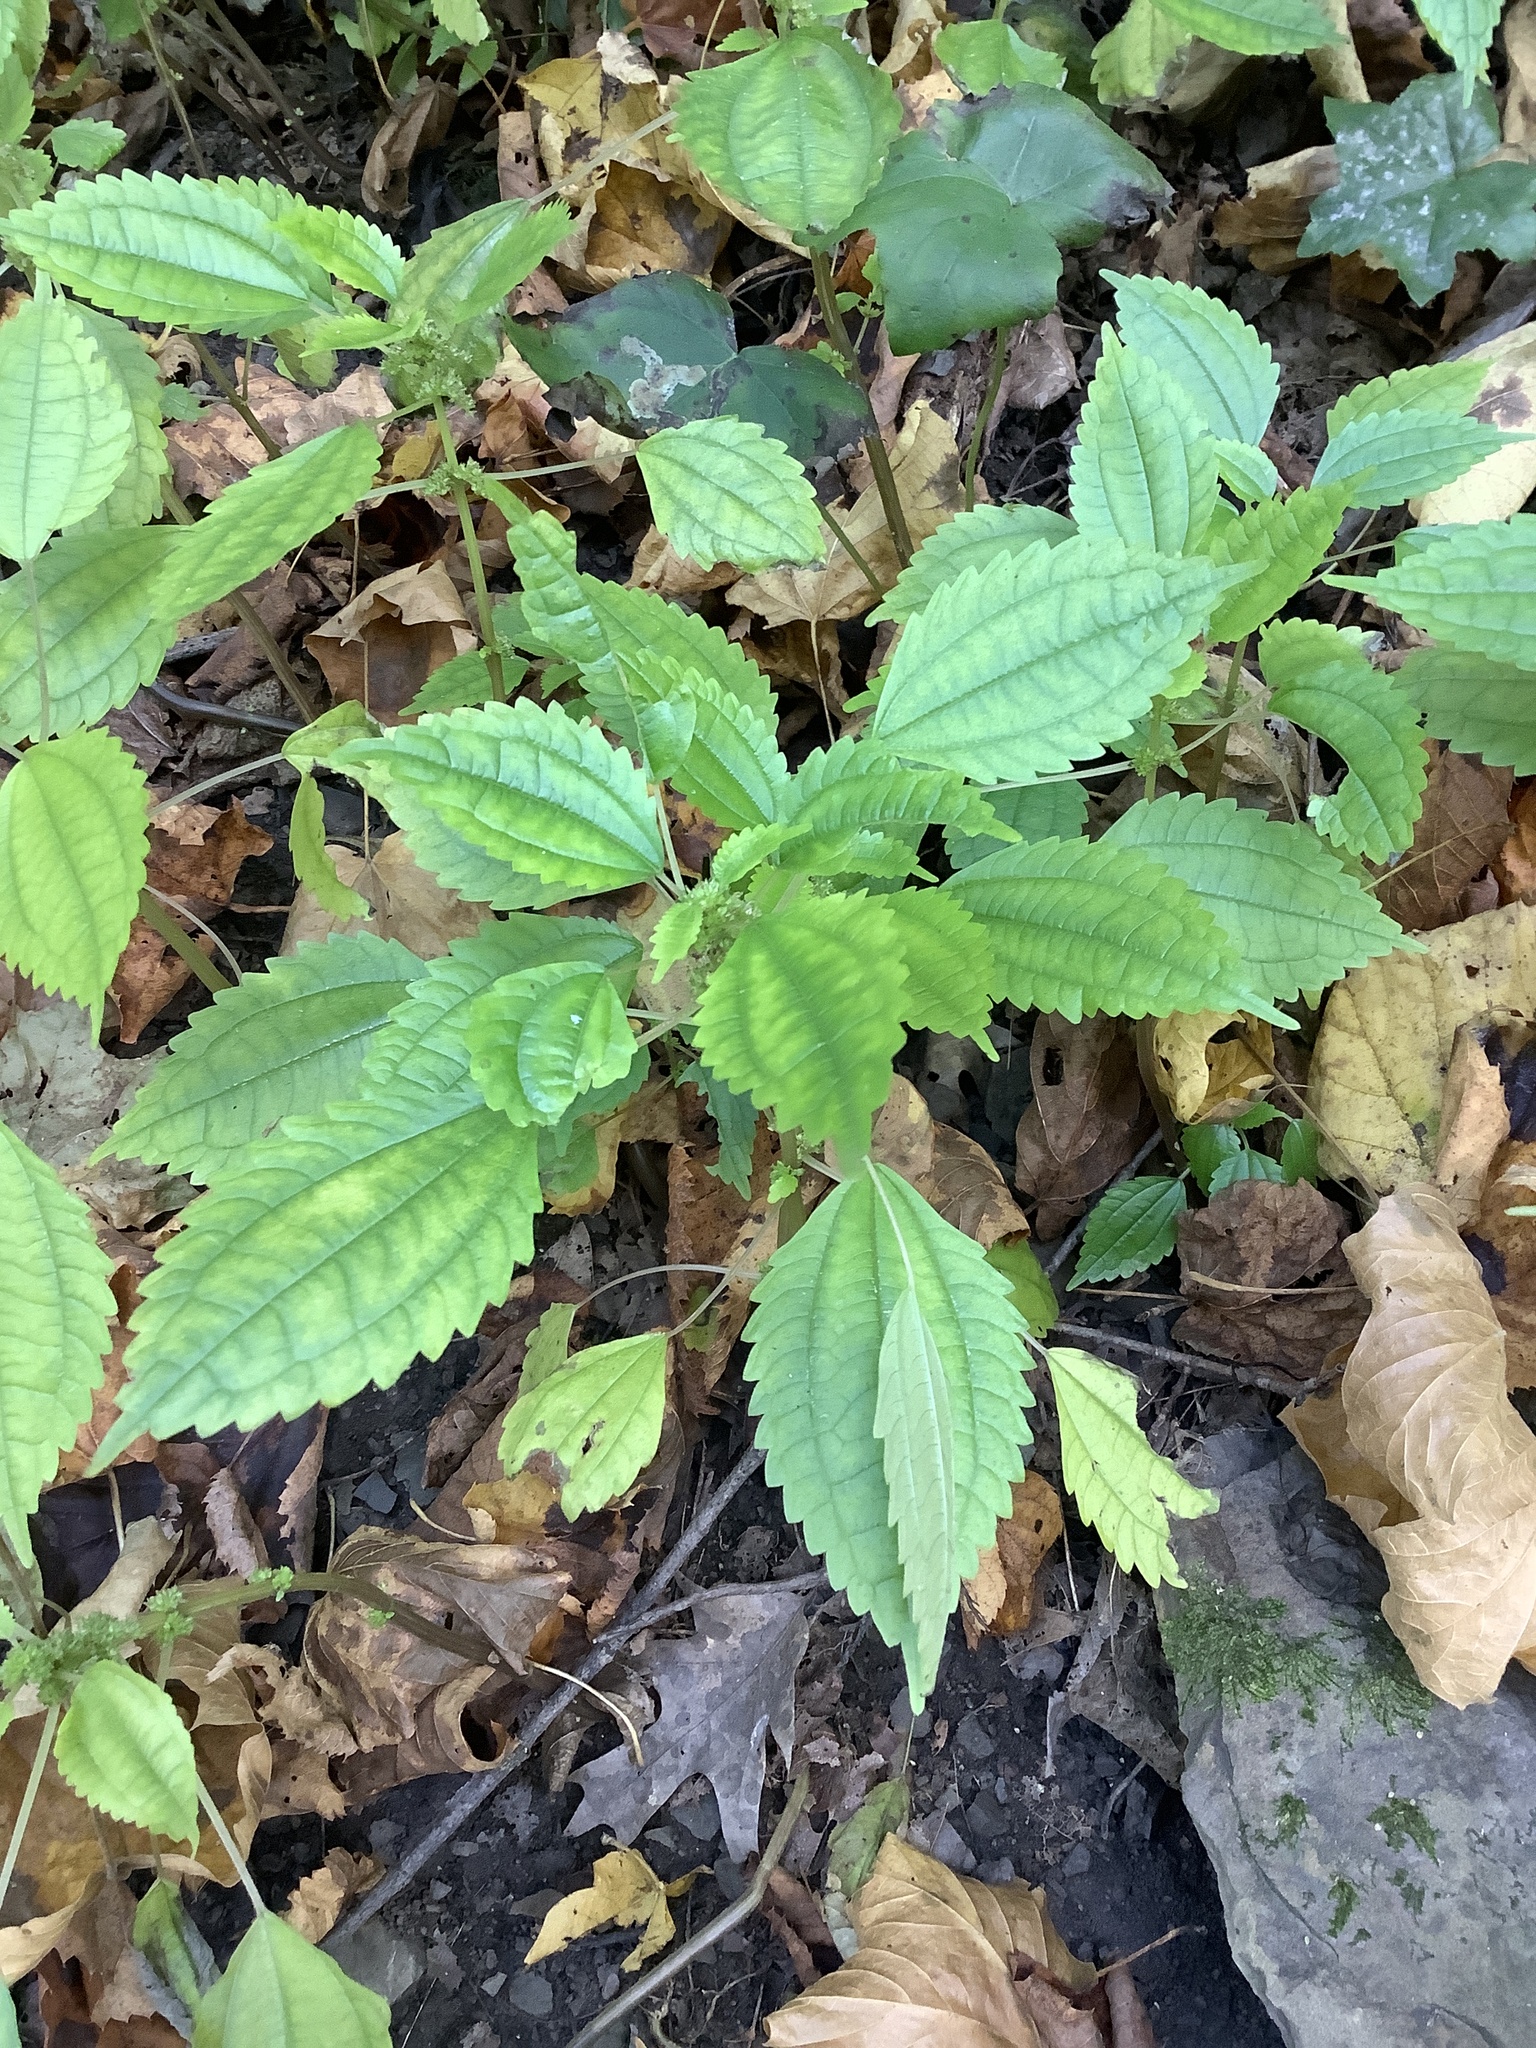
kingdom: Plantae
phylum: Tracheophyta
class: Magnoliopsida
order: Rosales
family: Urticaceae
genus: Pilea
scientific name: Pilea pumila
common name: Clearweed
